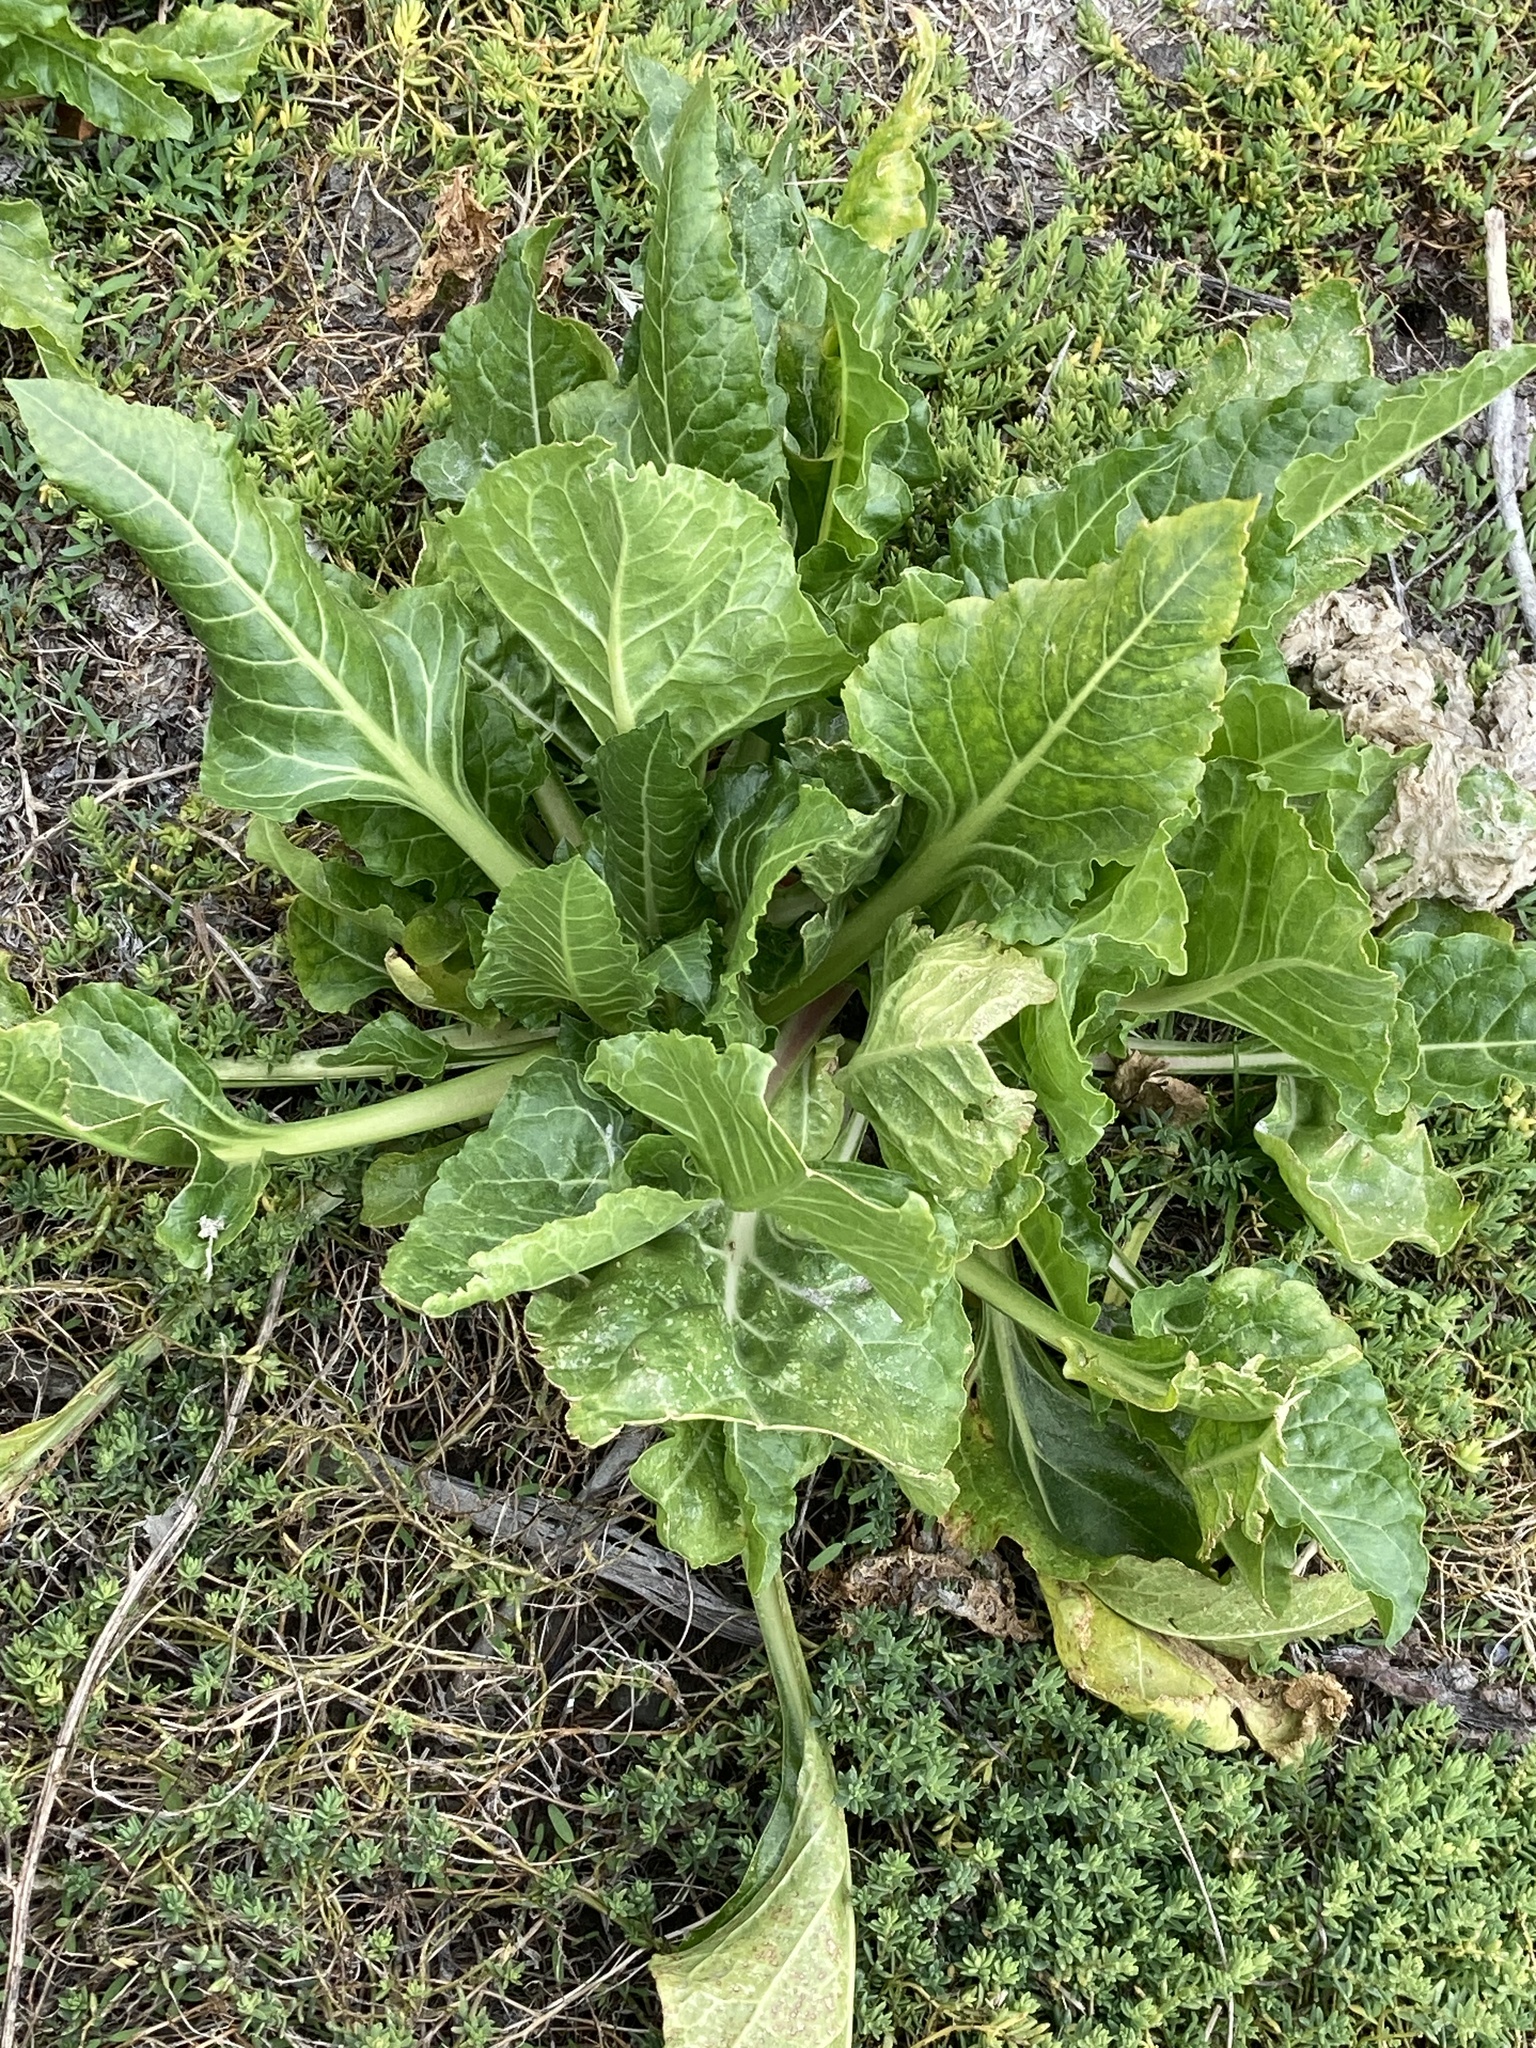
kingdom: Plantae
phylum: Tracheophyta
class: Magnoliopsida
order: Caryophyllales
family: Amaranthaceae
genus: Beta
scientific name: Beta vulgaris
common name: Beet
